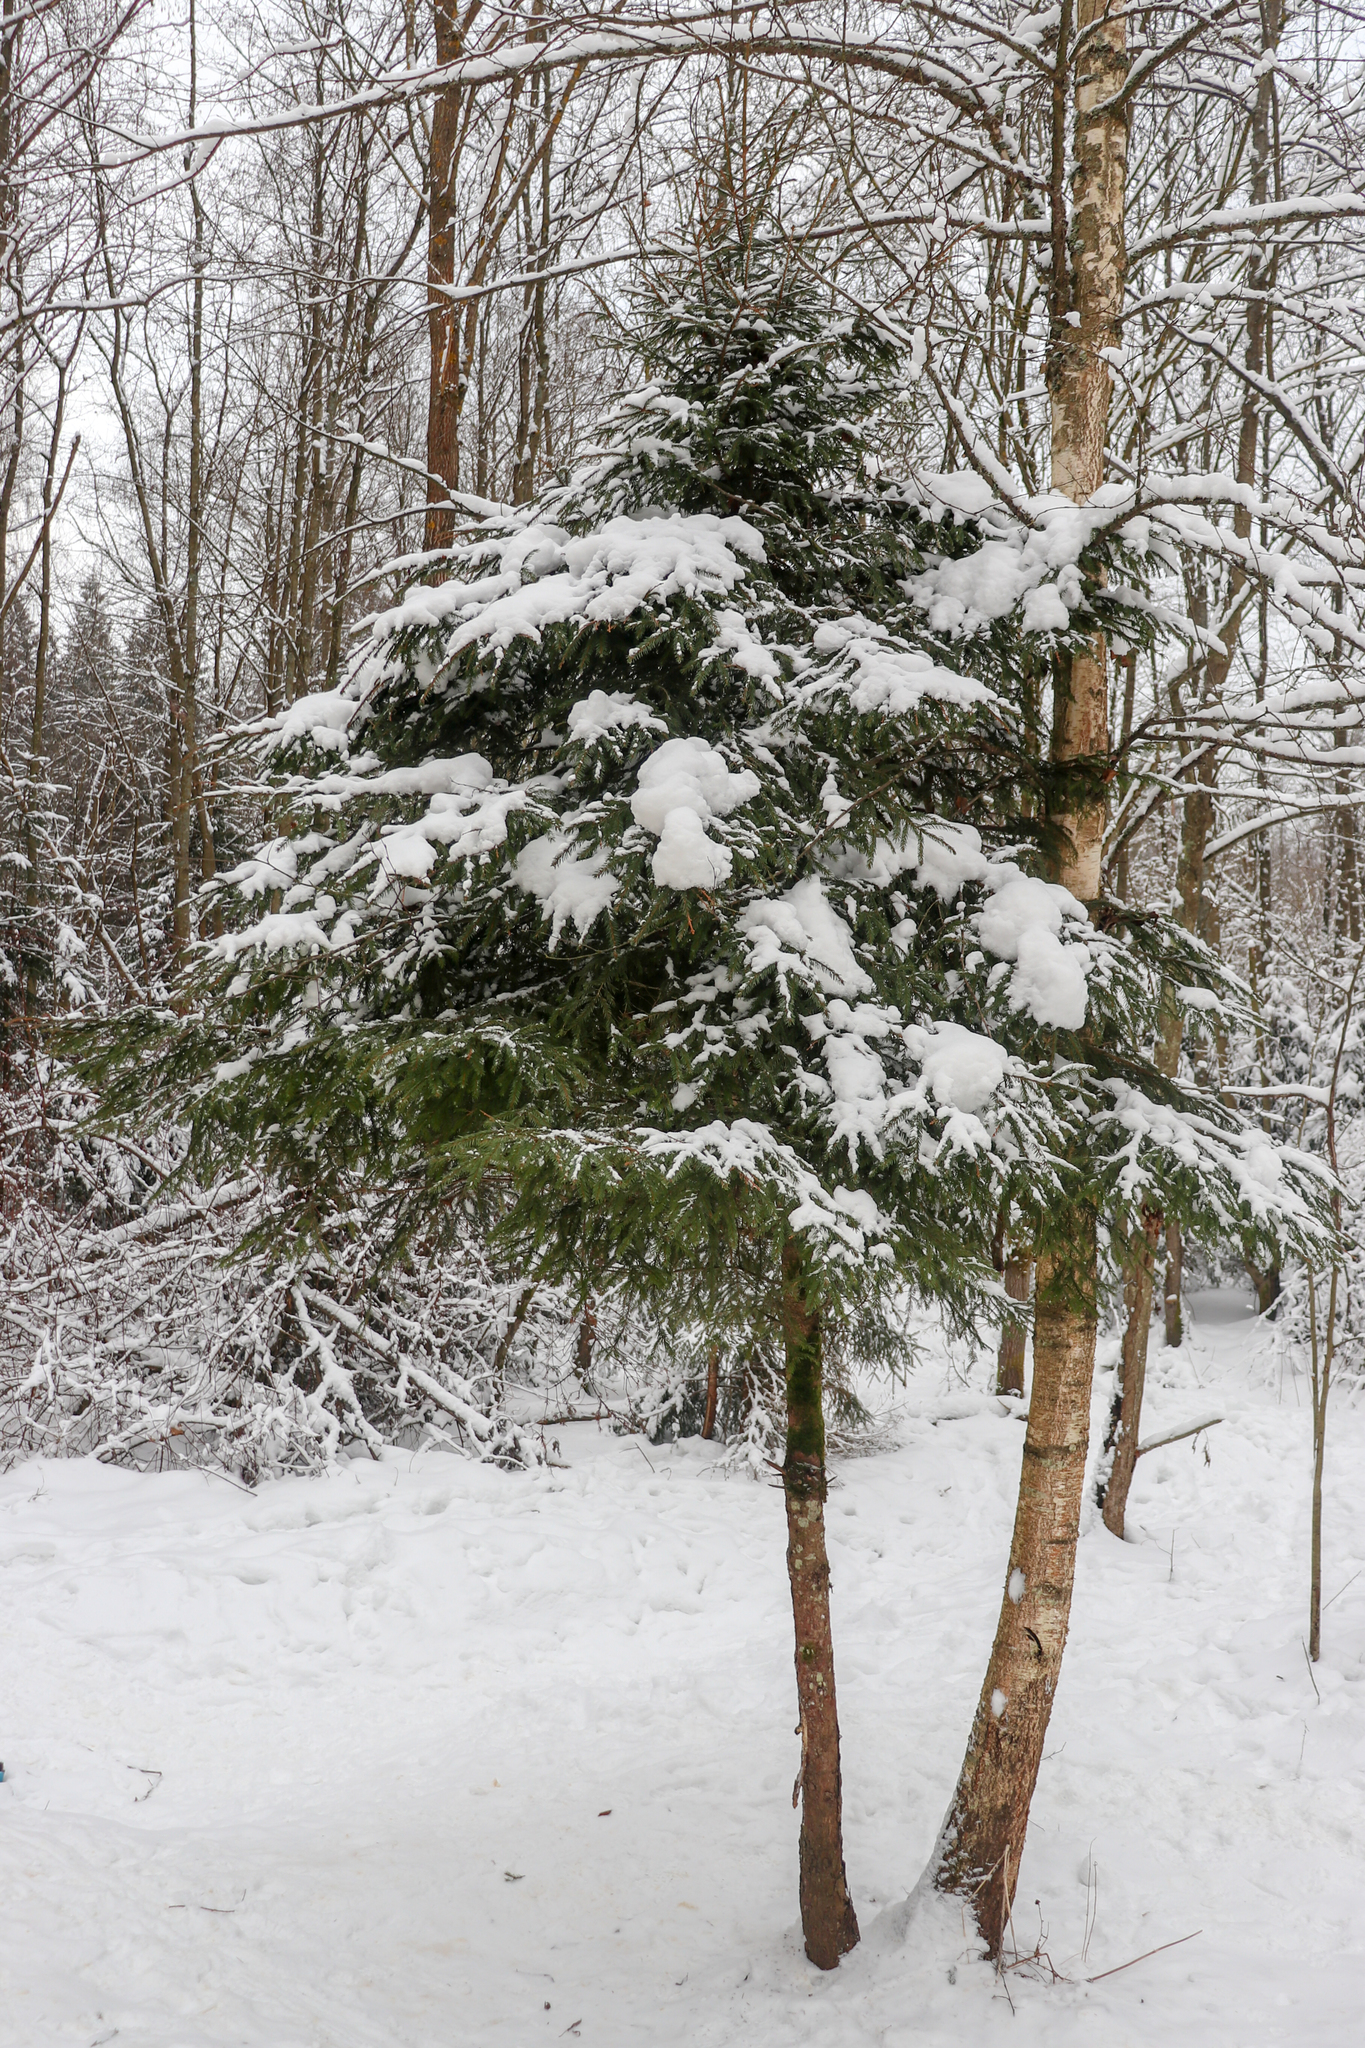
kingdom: Plantae
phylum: Tracheophyta
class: Pinopsida
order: Pinales
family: Pinaceae
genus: Picea
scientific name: Picea abies
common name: Norway spruce
